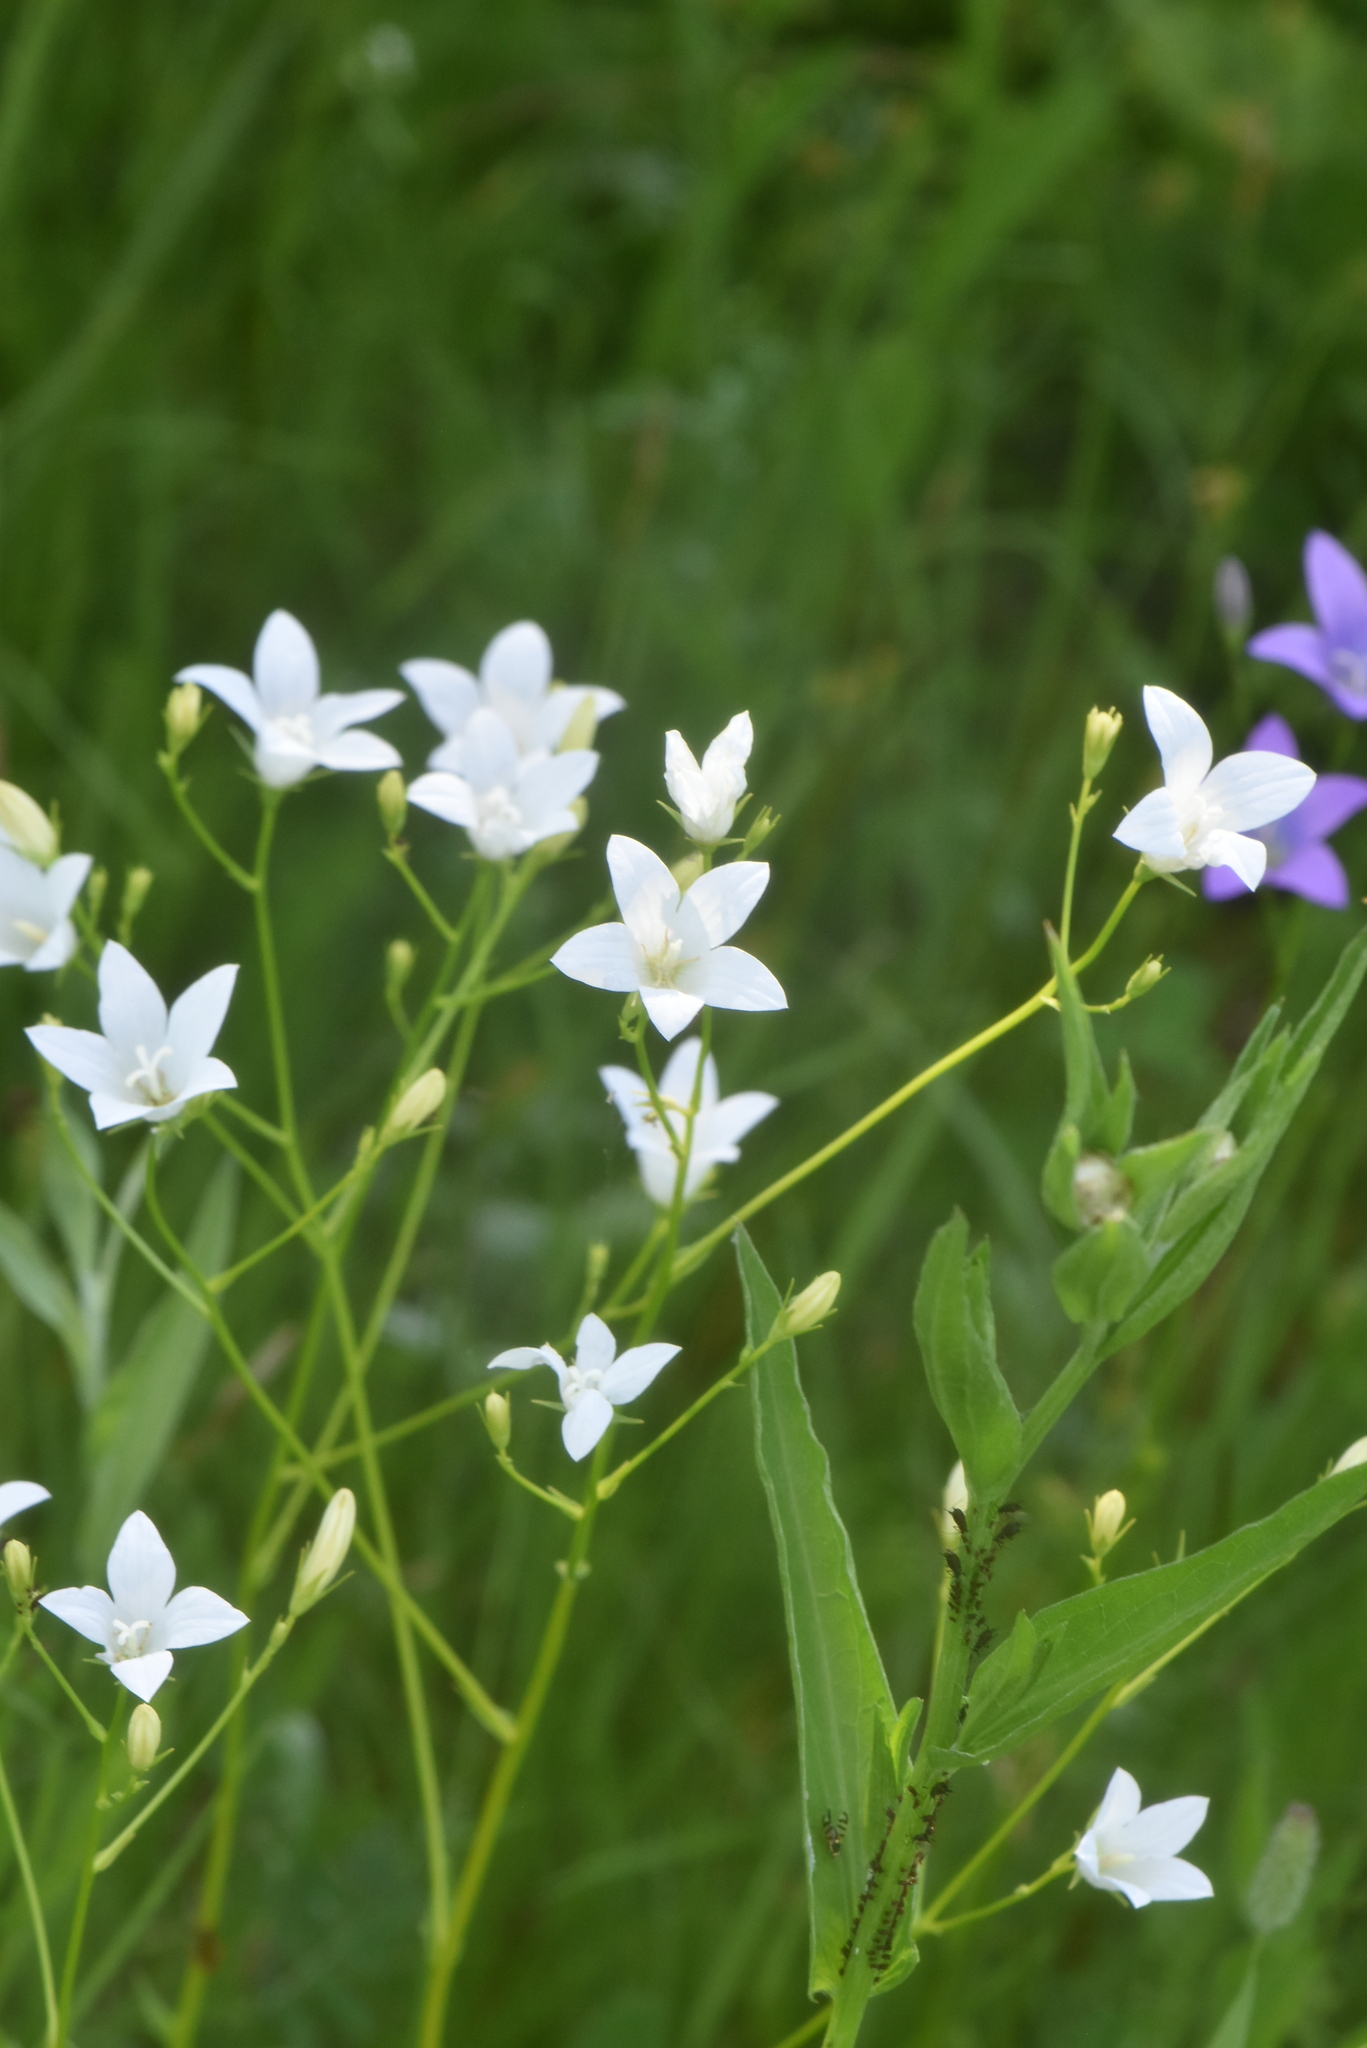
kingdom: Plantae
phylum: Tracheophyta
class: Magnoliopsida
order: Asterales
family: Campanulaceae
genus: Campanula
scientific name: Campanula patula
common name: Spreading bellflower
